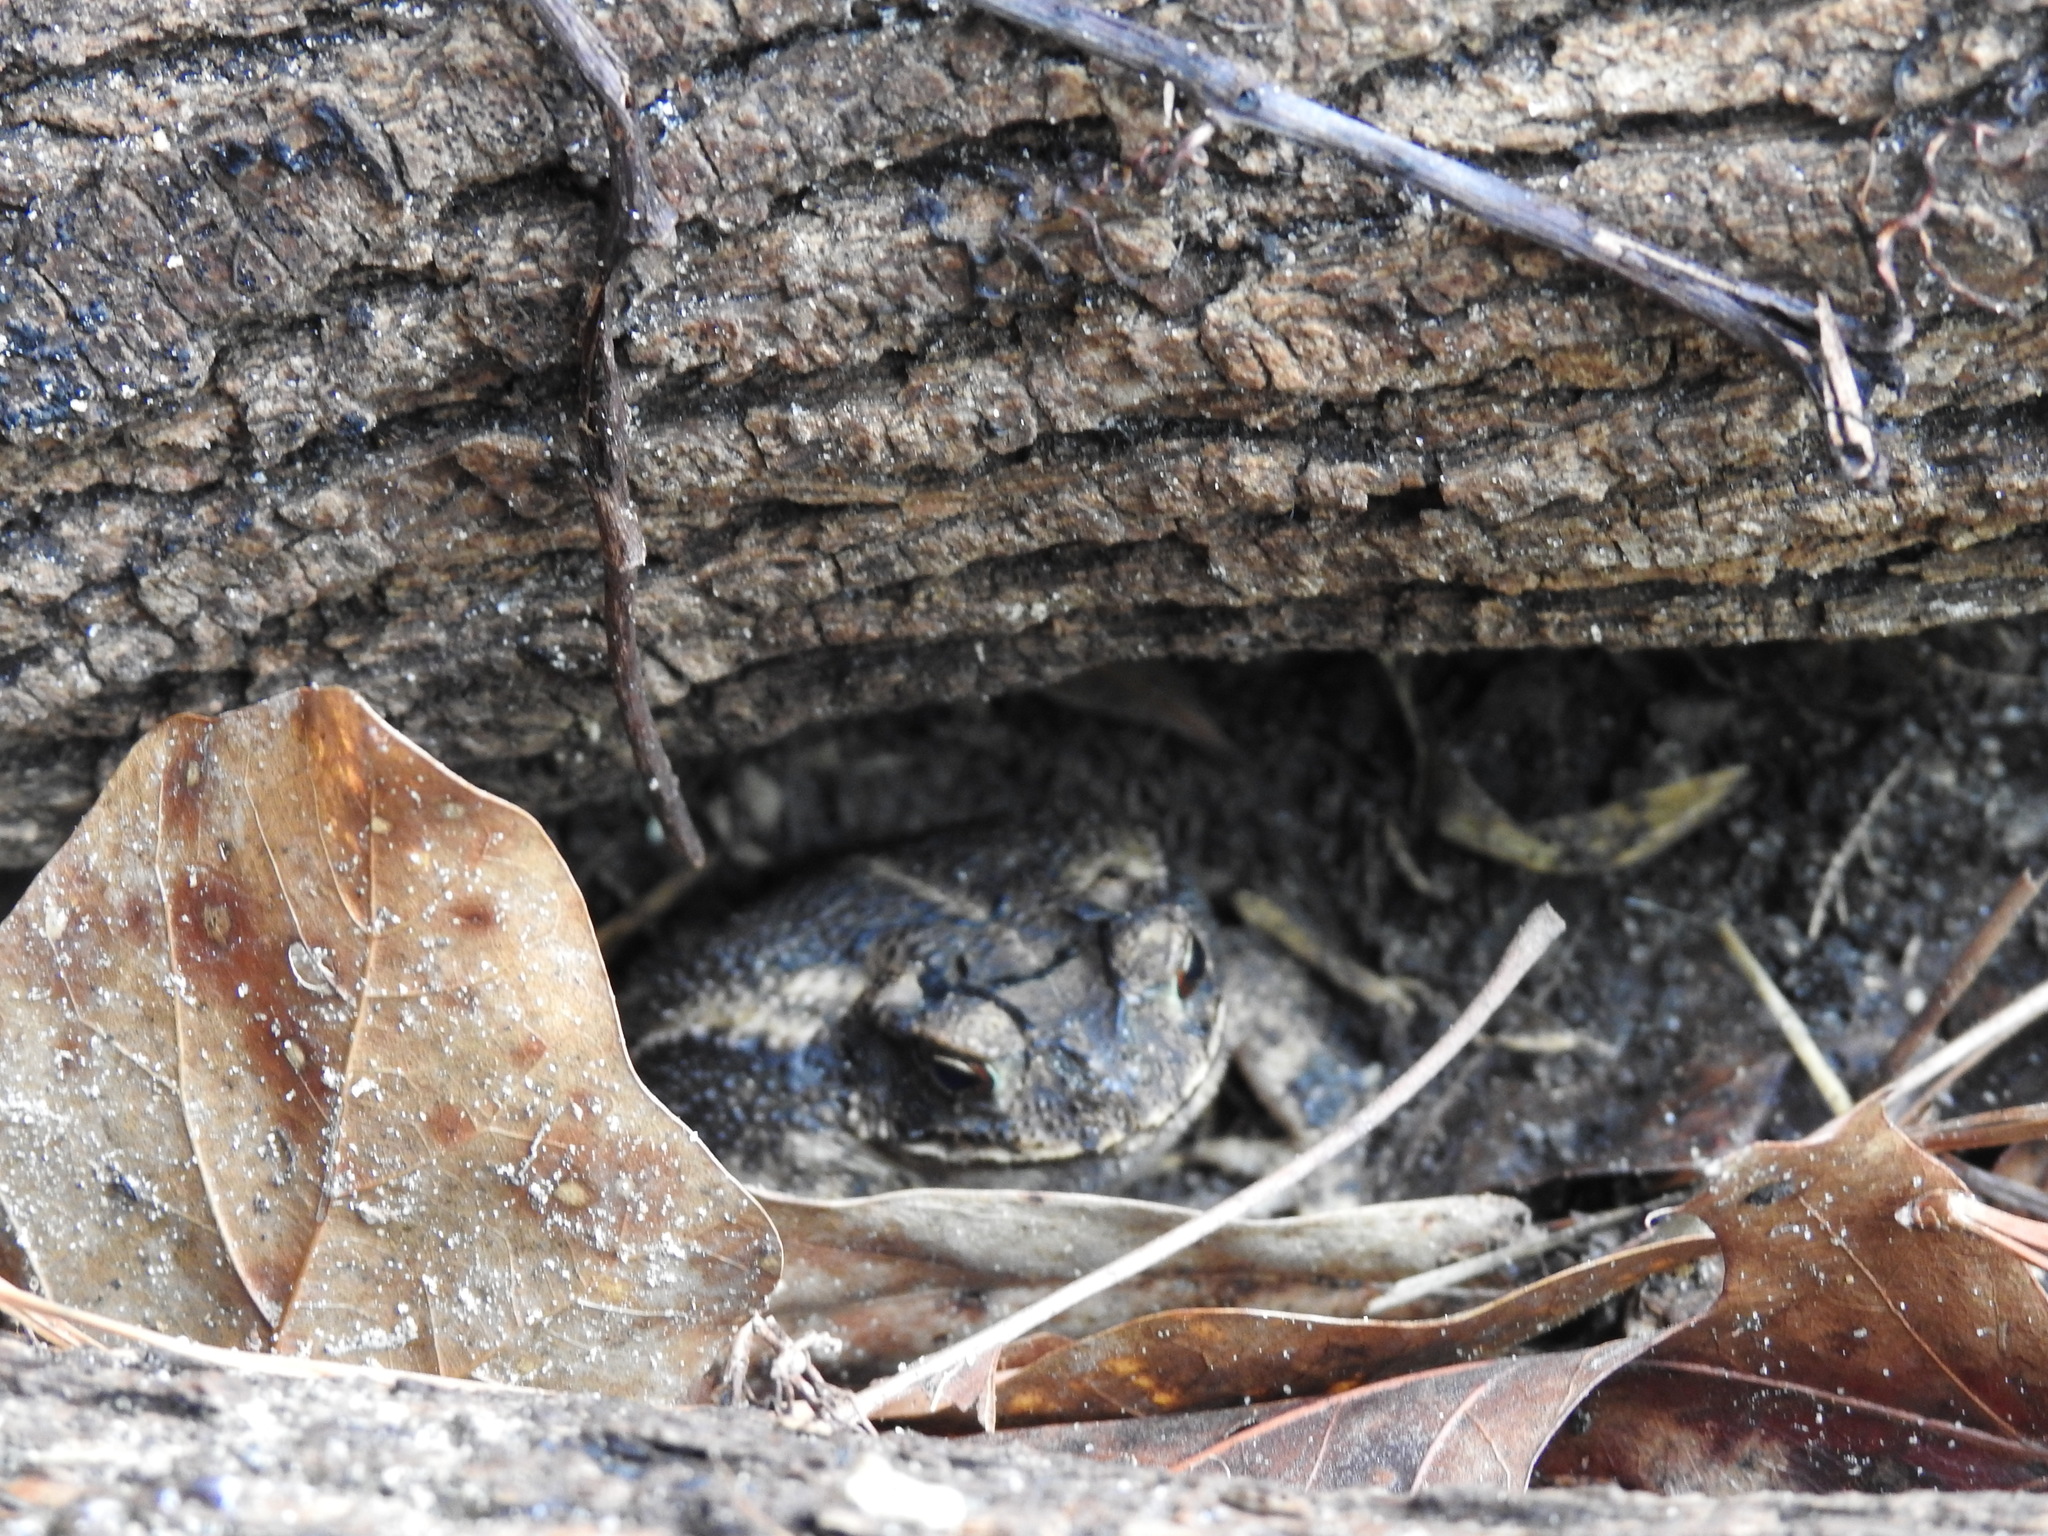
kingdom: Animalia
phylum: Chordata
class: Amphibia
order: Anura
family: Bufonidae
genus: Incilius
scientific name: Incilius nebulifer
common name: Gulf coast toad
